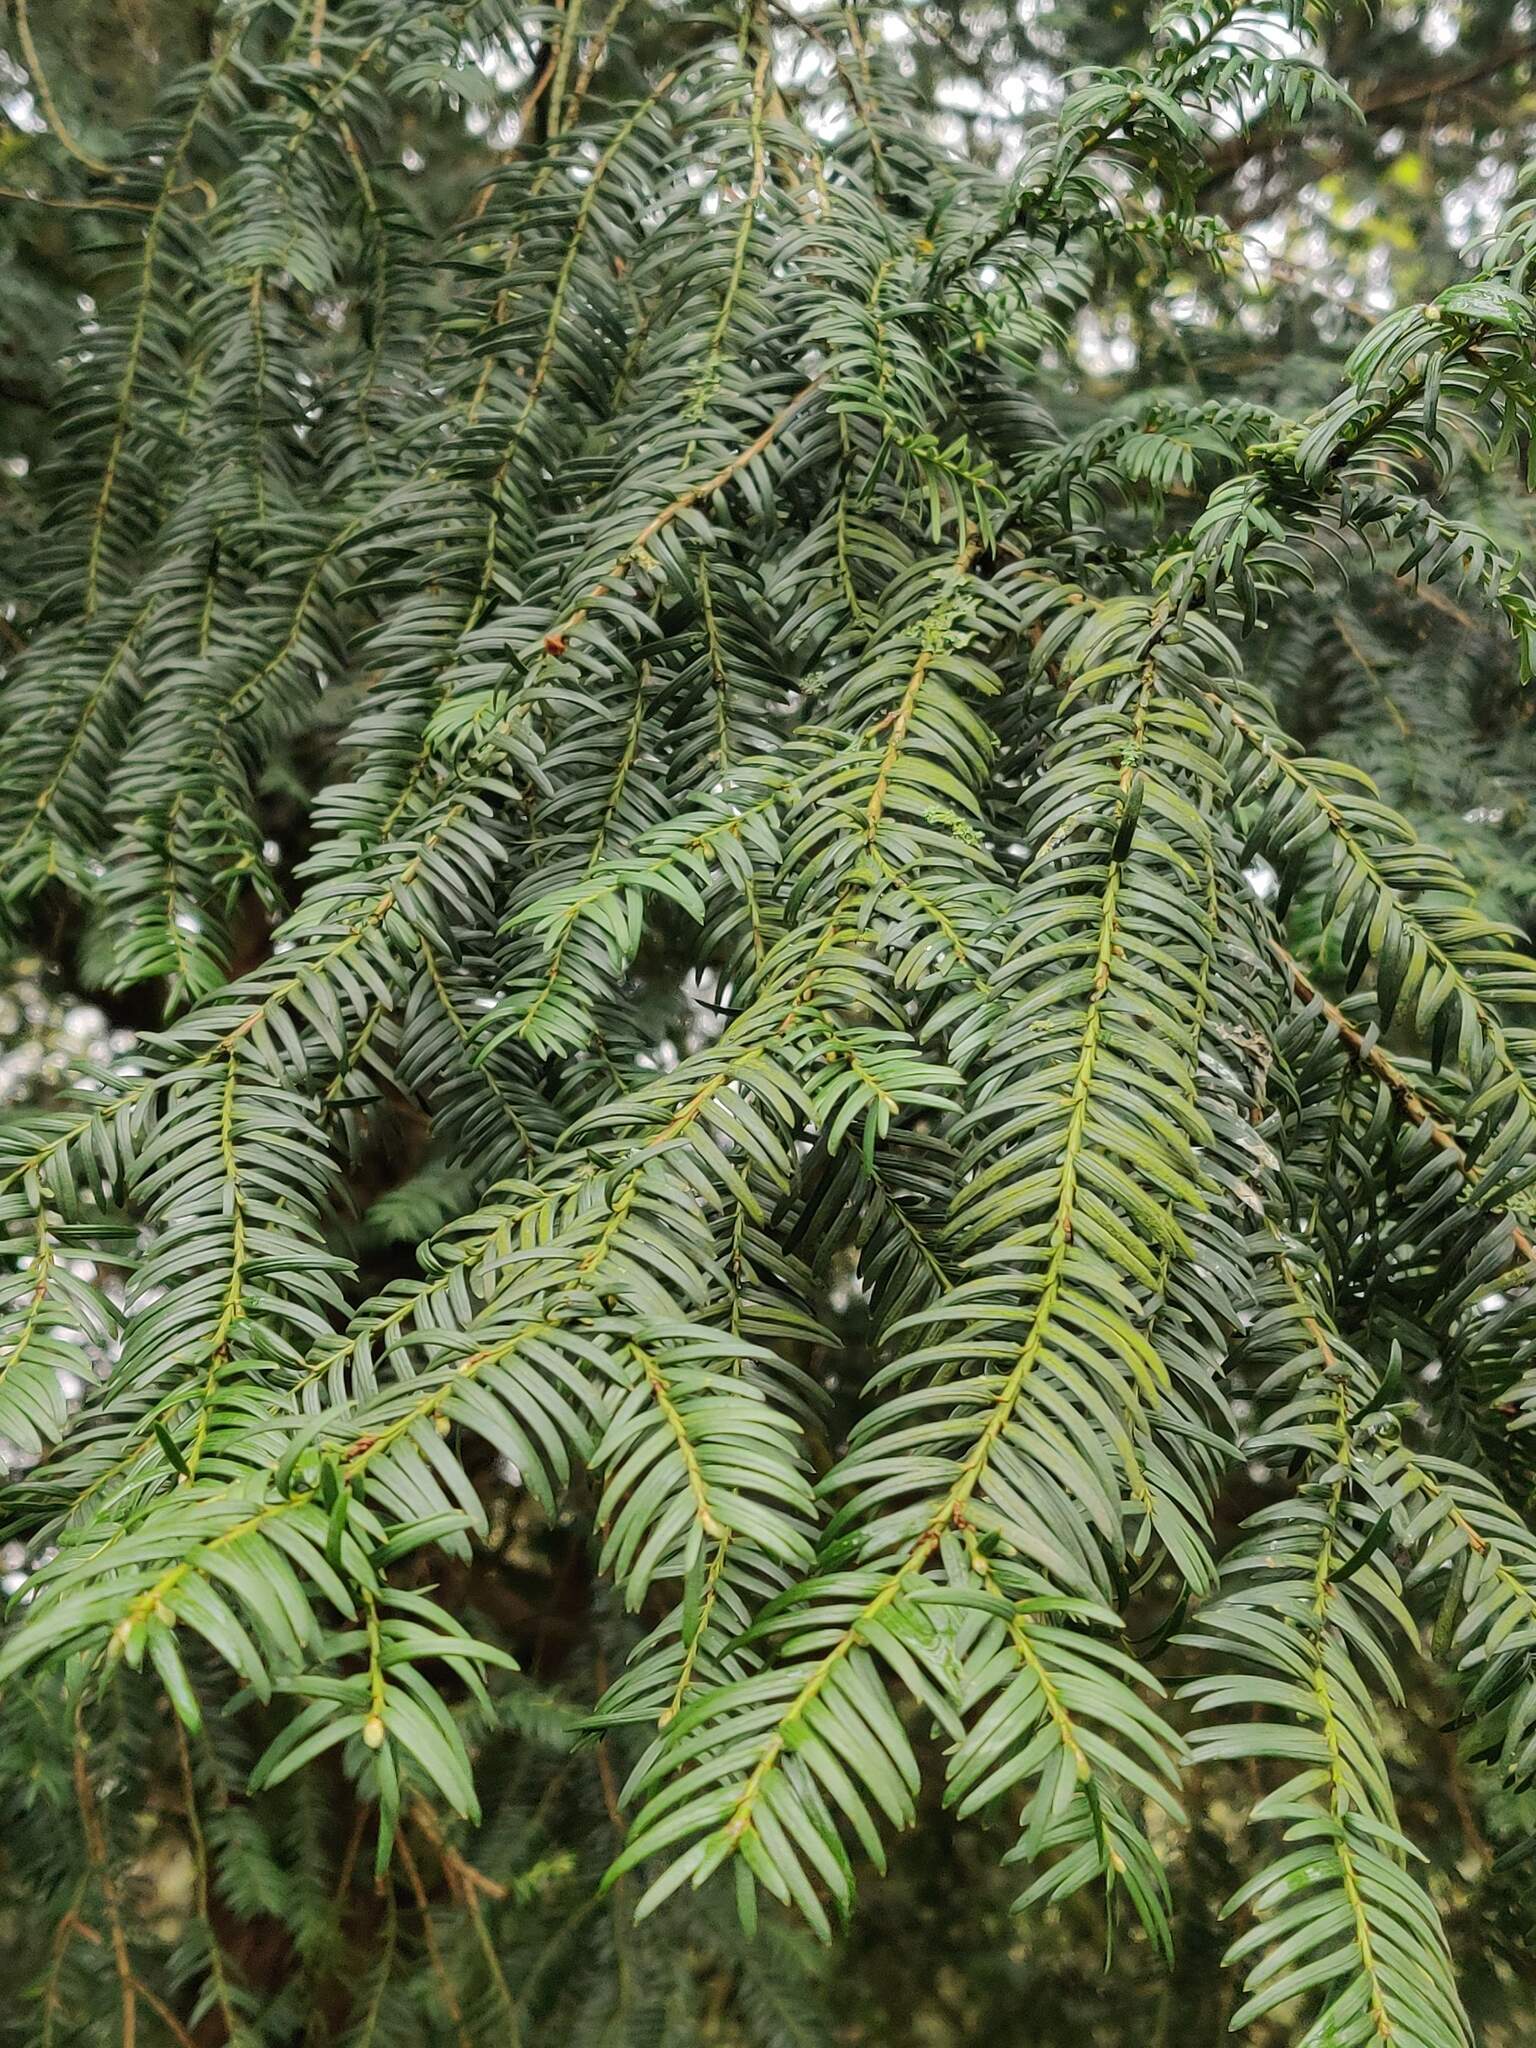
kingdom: Plantae
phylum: Tracheophyta
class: Pinopsida
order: Pinales
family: Taxaceae
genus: Taxus
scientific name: Taxus baccata
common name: Yew
